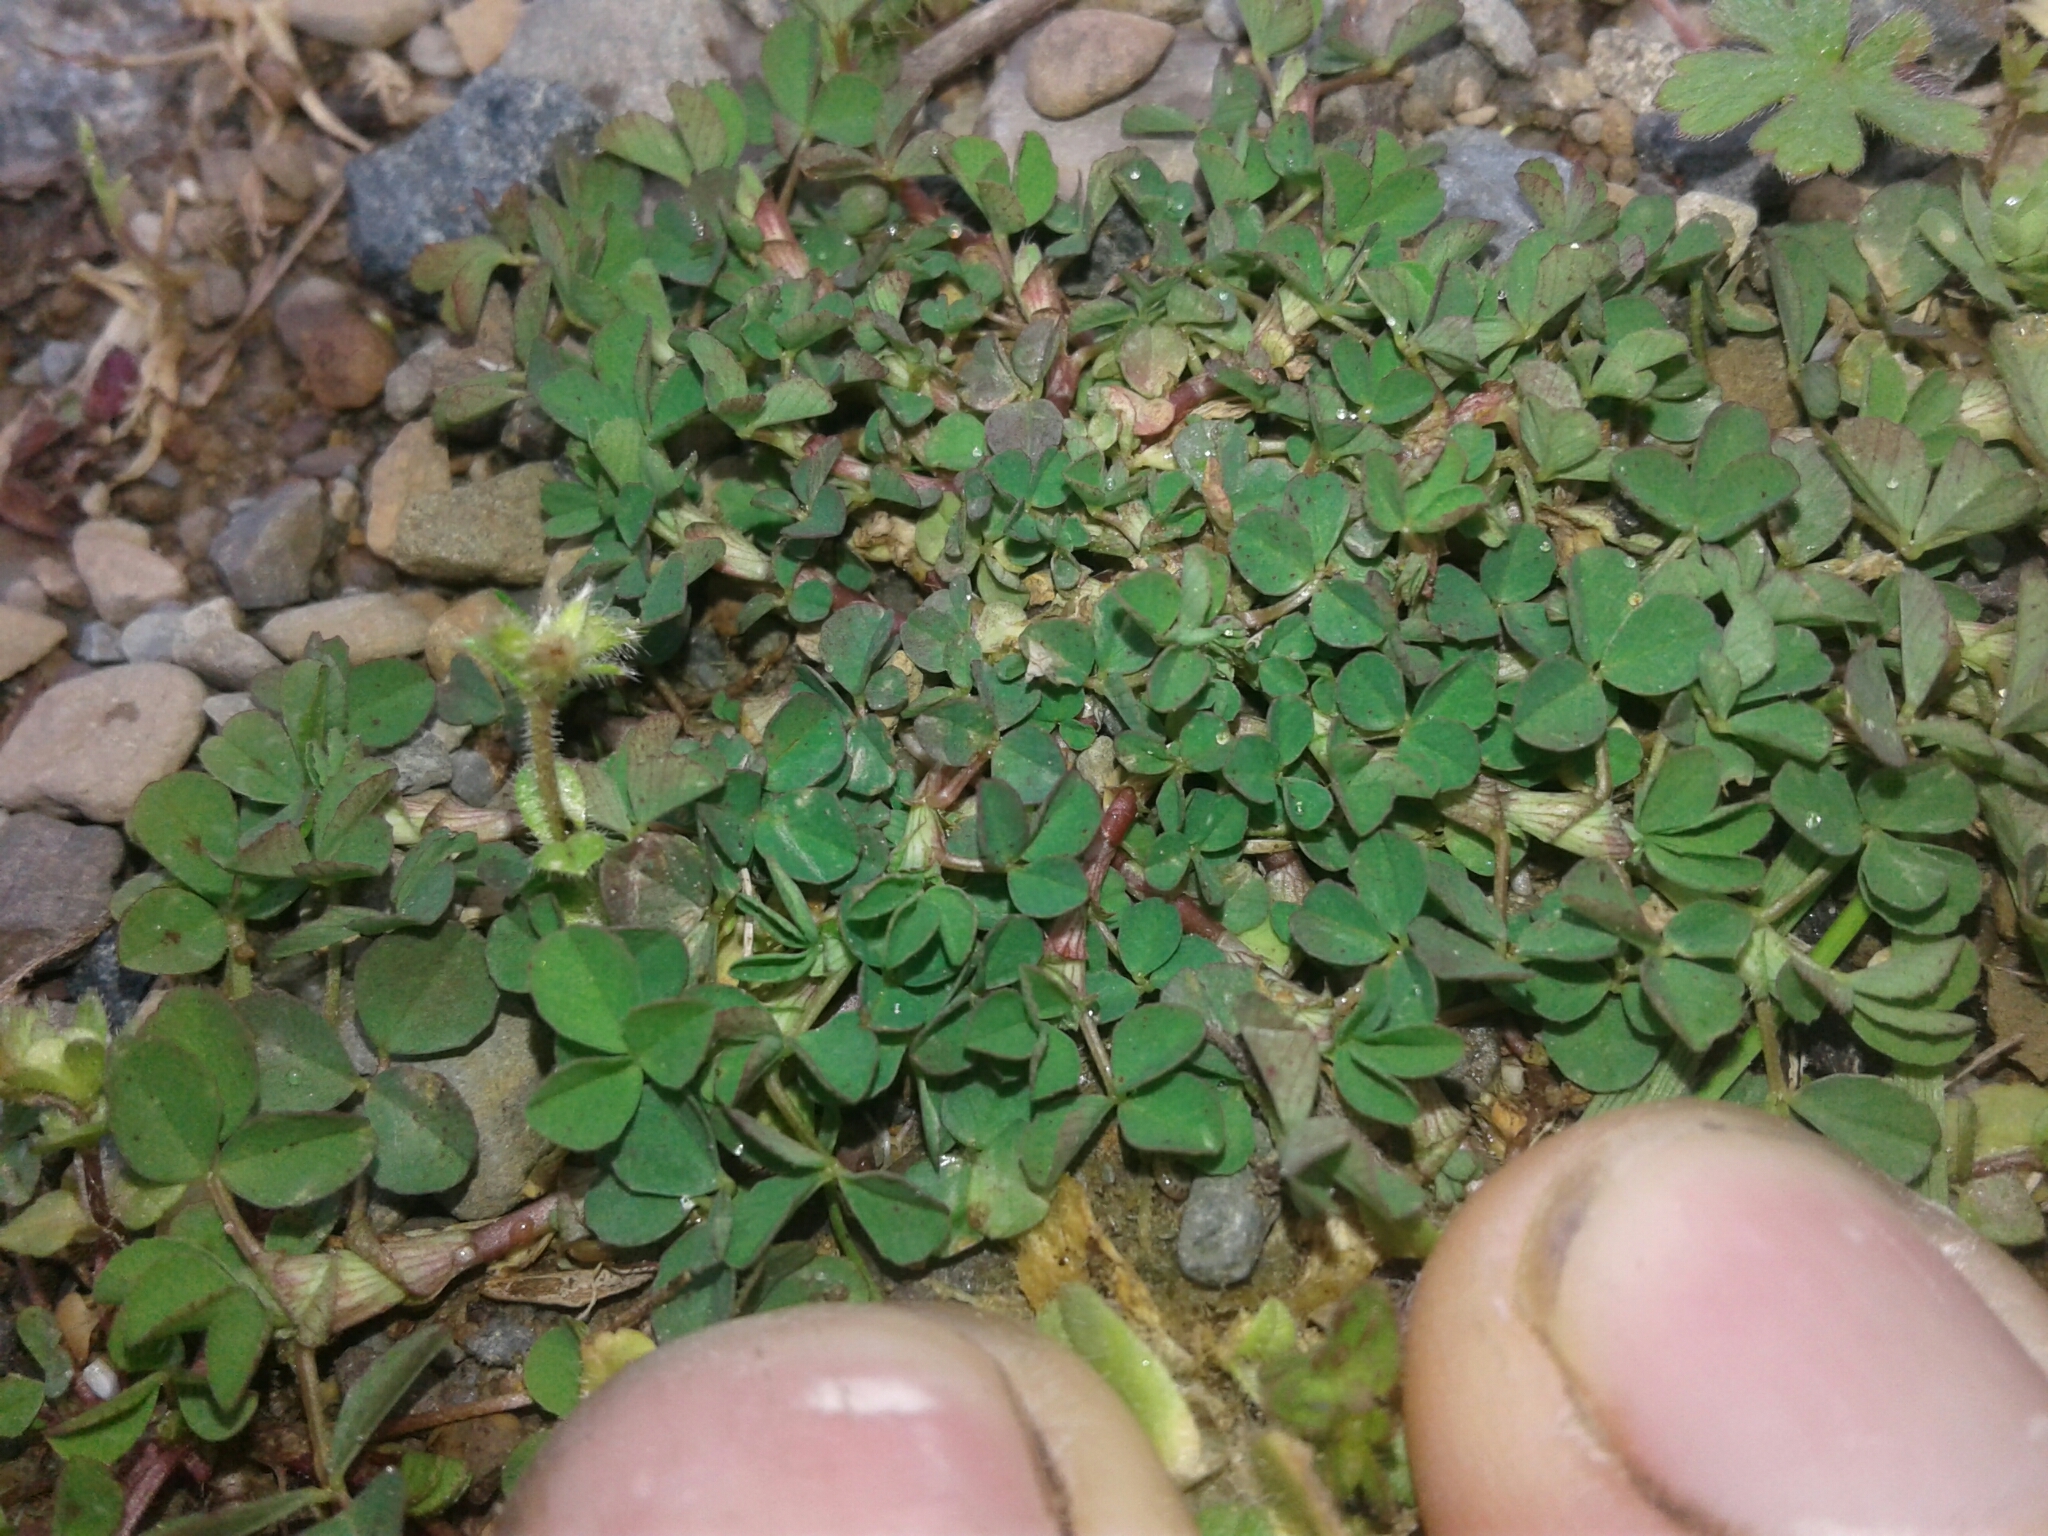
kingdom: Plantae
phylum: Tracheophyta
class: Magnoliopsida
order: Fabales
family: Fabaceae
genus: Trifolium
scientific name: Trifolium dubium
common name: Suckling clover
